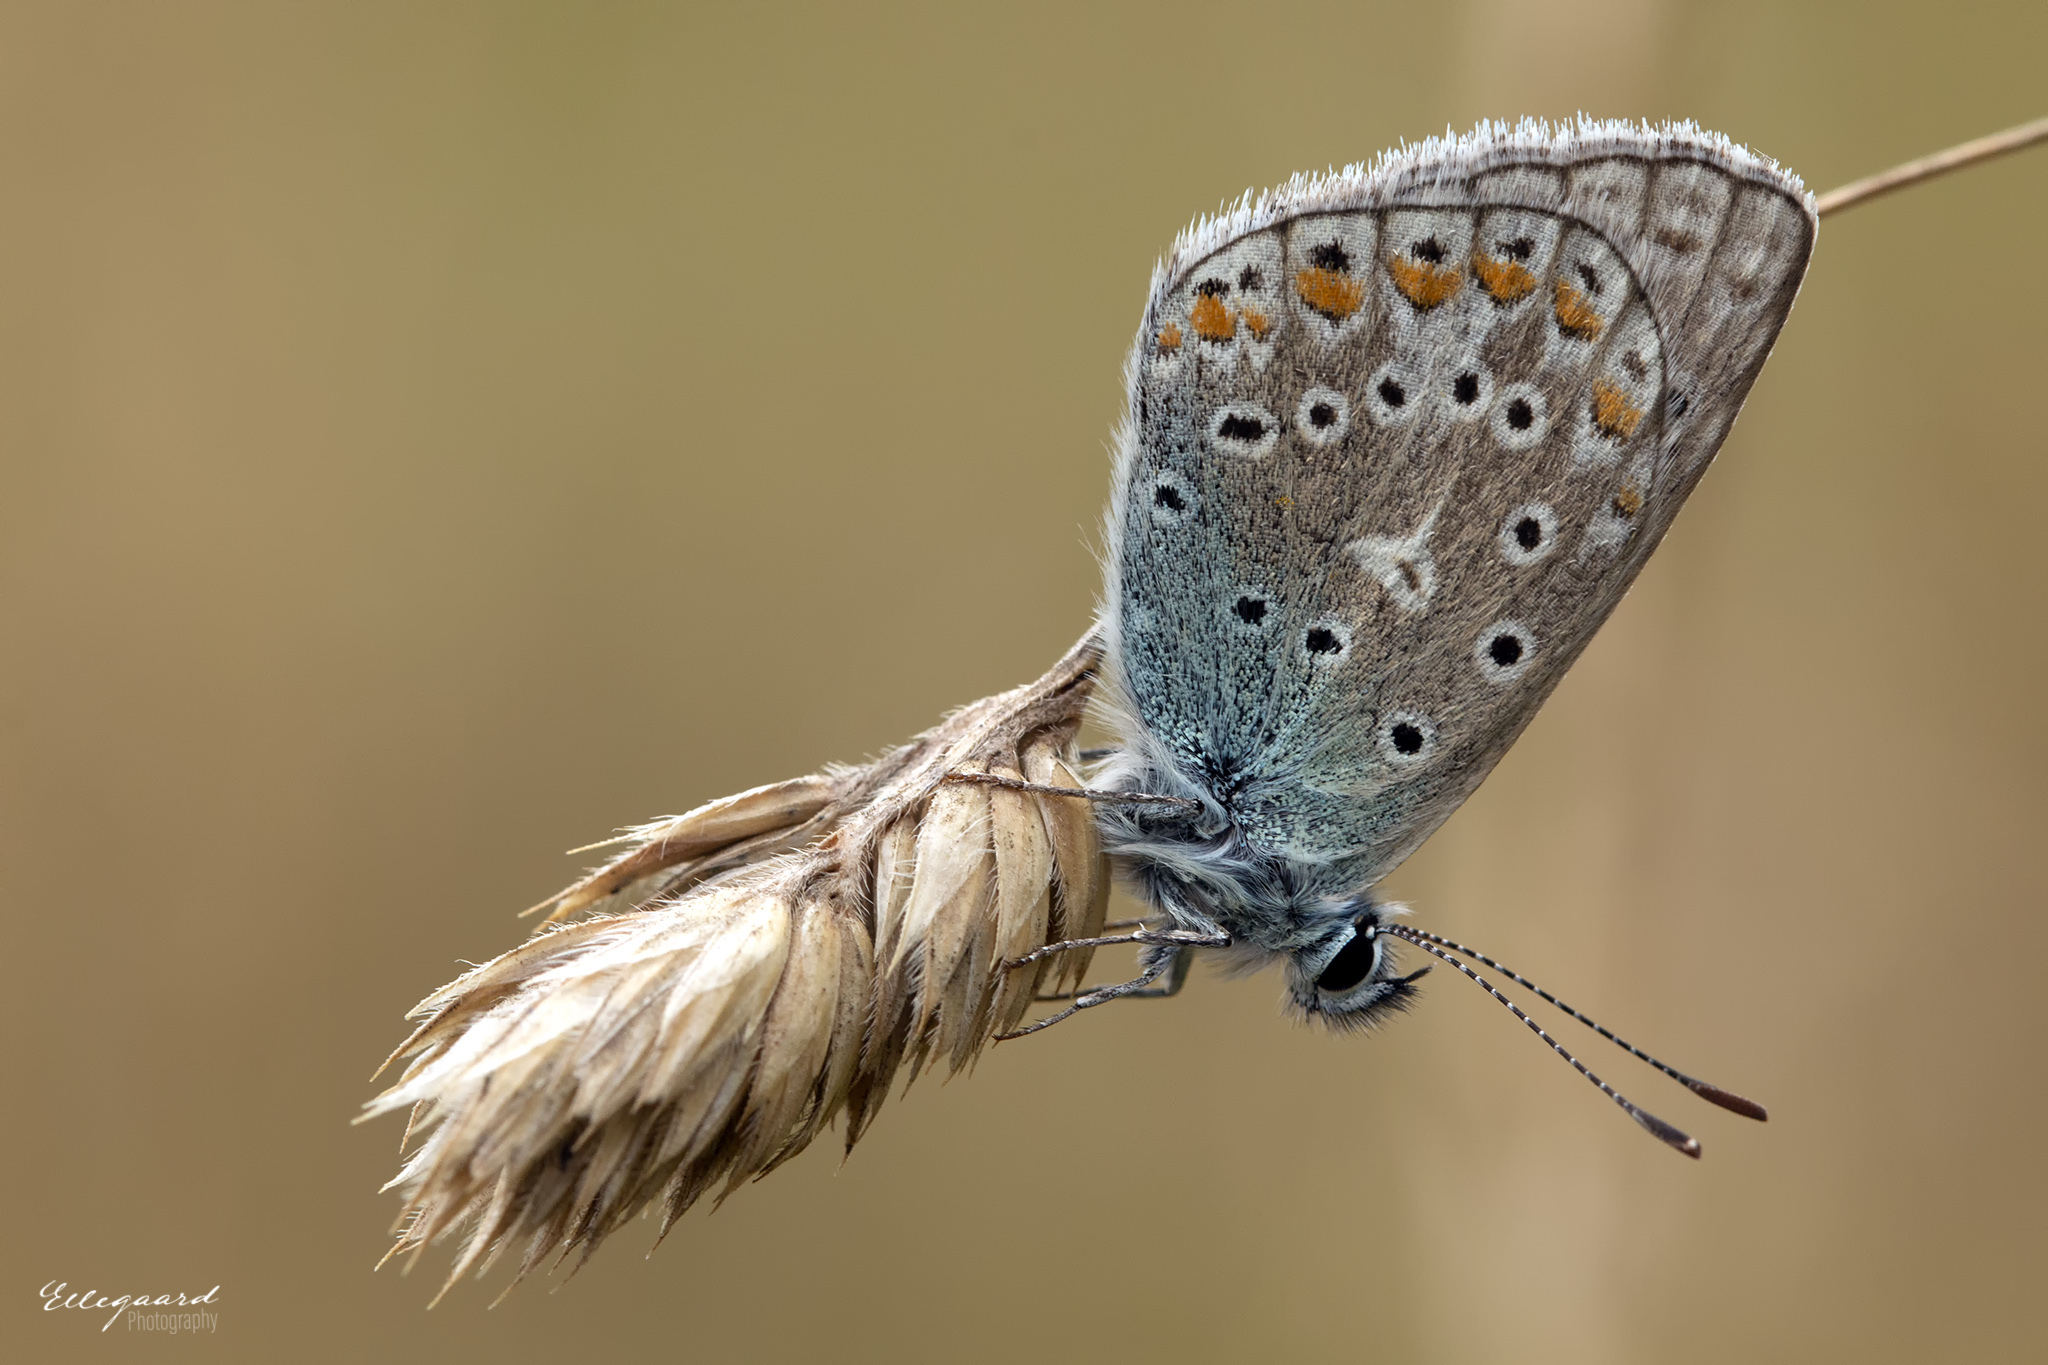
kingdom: Animalia
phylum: Arthropoda
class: Insecta
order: Lepidoptera
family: Lycaenidae
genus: Polyommatus
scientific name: Polyommatus icarus
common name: Common blue
